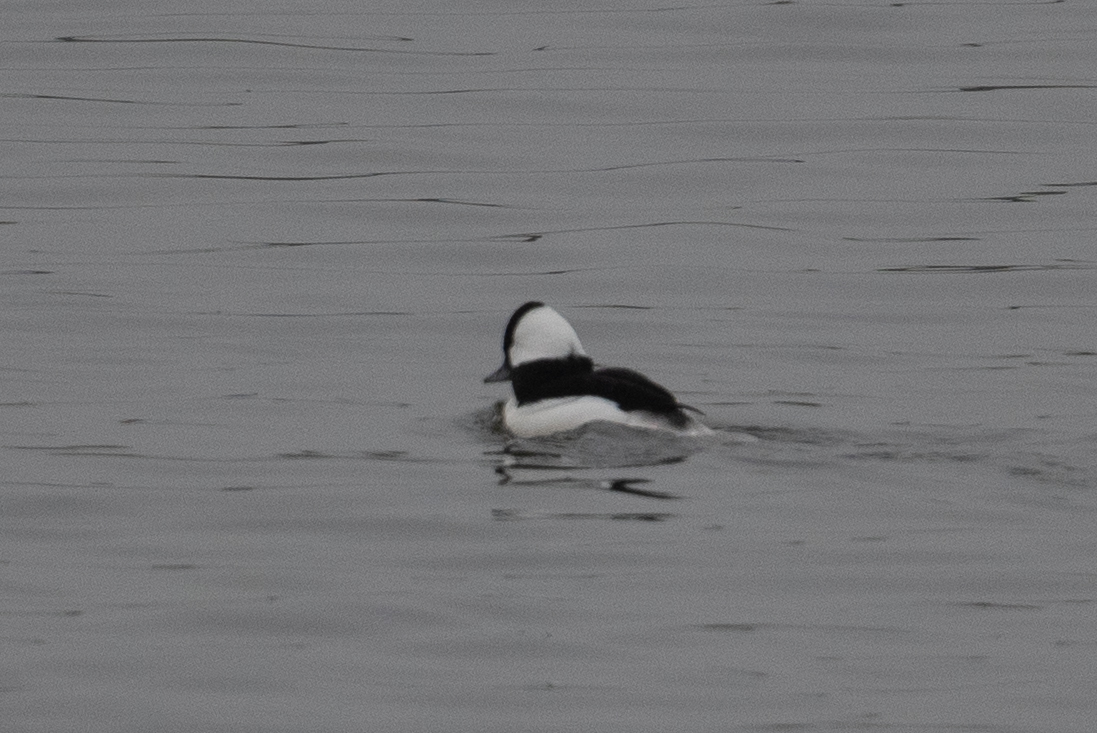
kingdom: Animalia
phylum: Chordata
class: Aves
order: Anseriformes
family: Anatidae
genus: Bucephala
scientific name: Bucephala albeola
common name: Bufflehead
